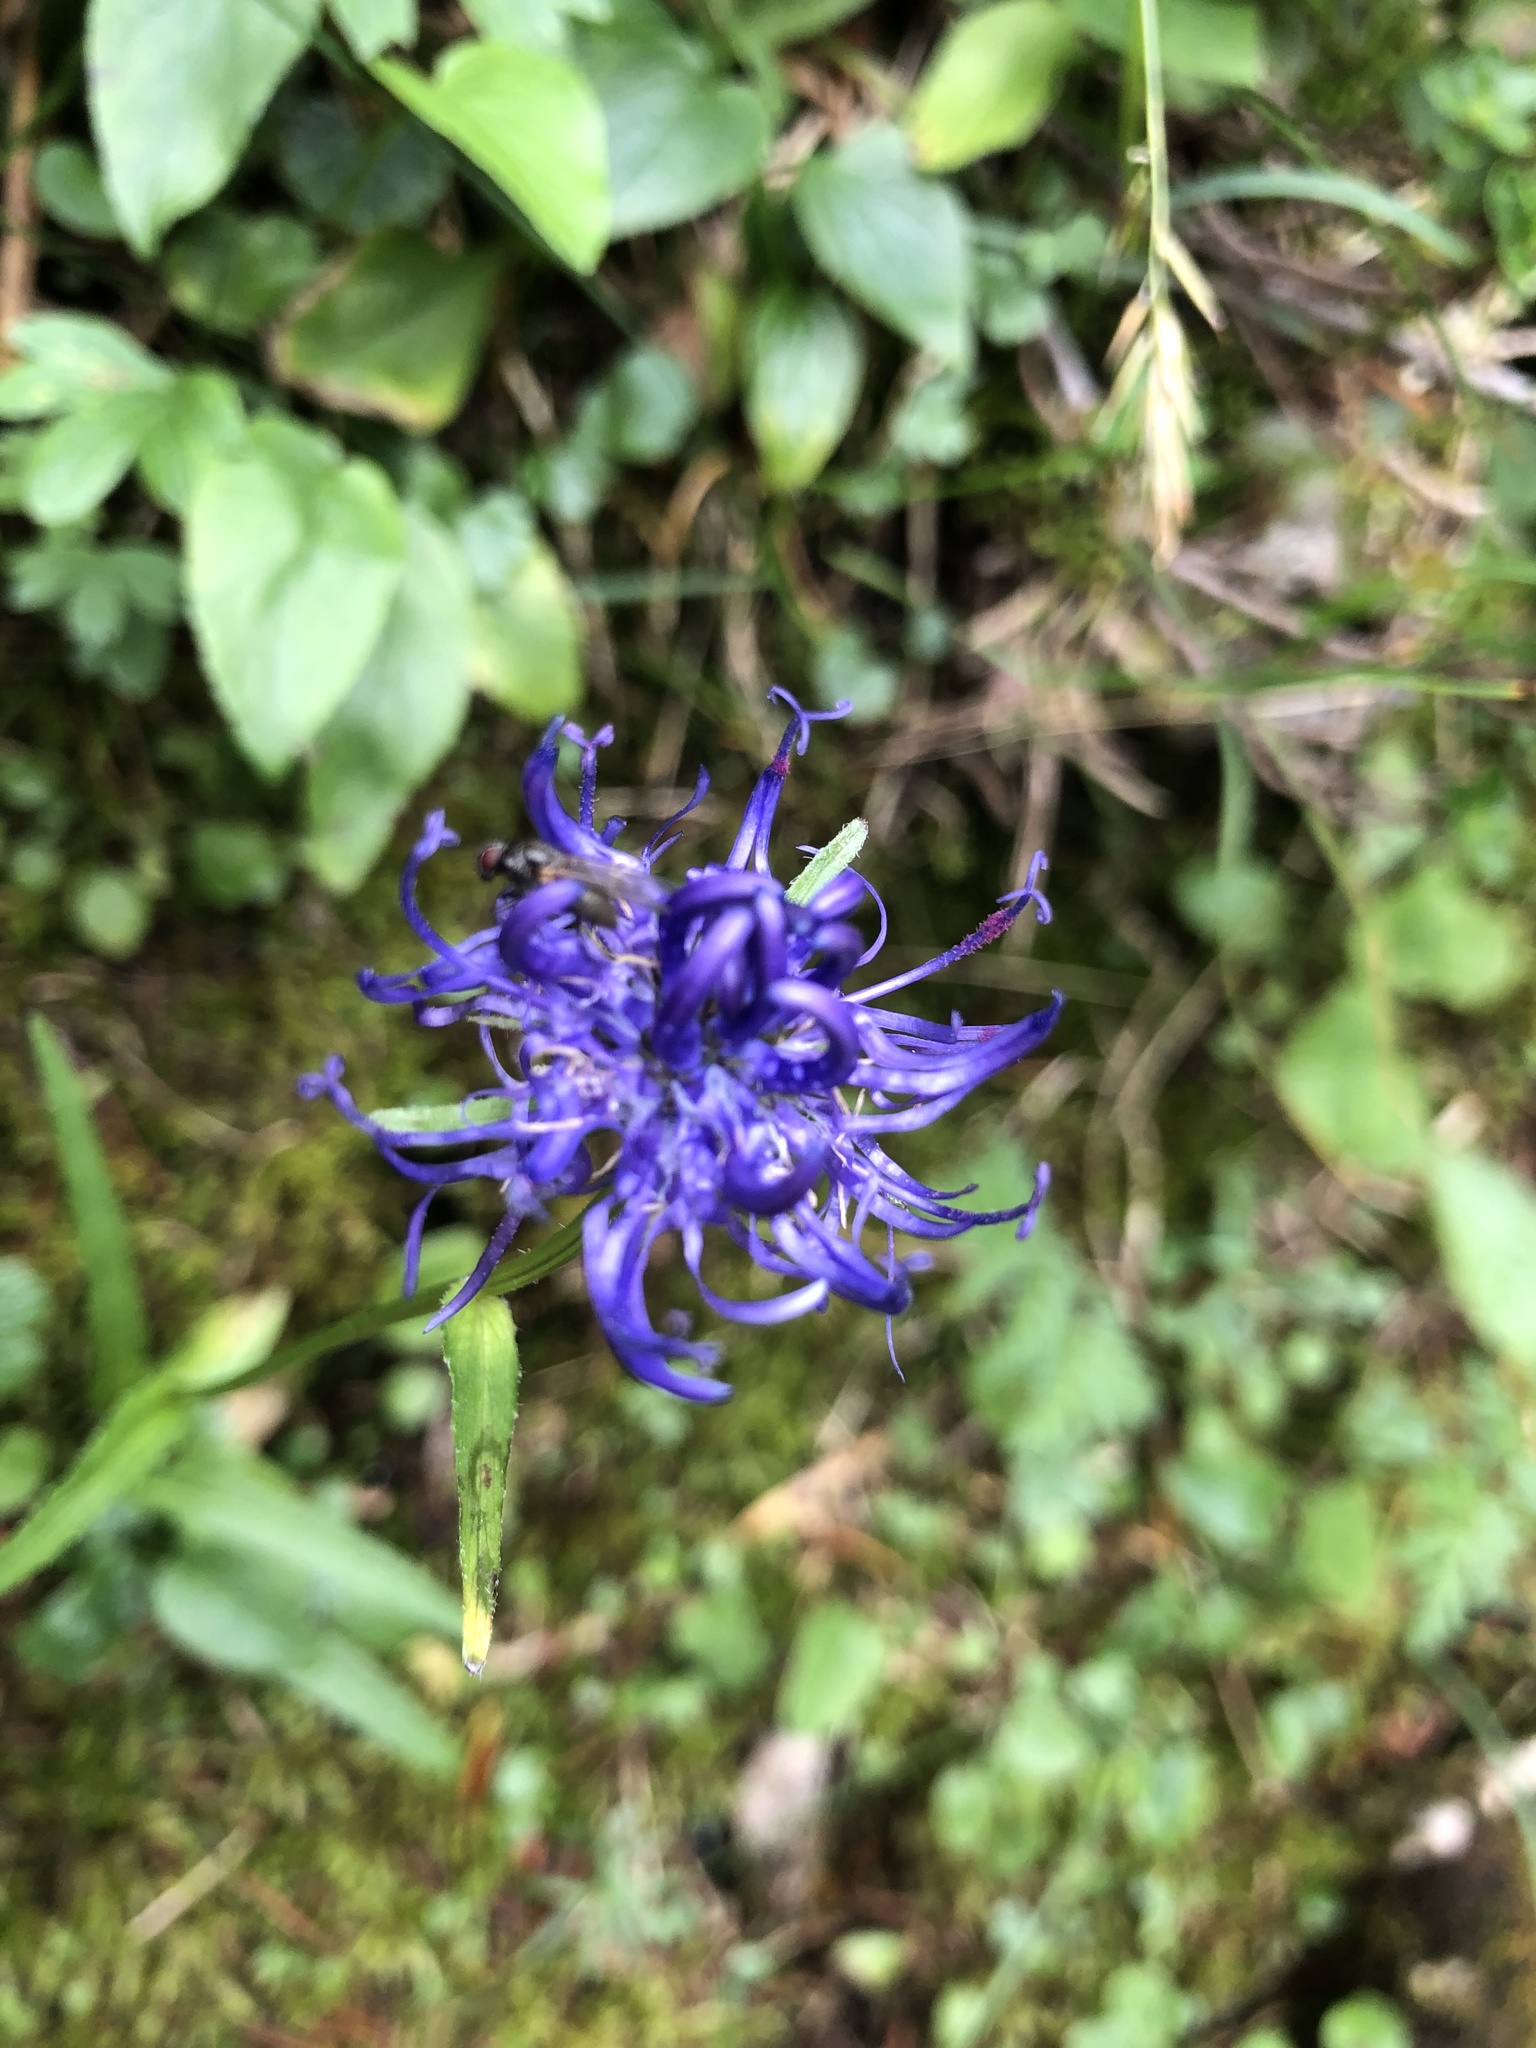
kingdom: Plantae
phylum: Tracheophyta
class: Magnoliopsida
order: Asterales
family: Campanulaceae
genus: Phyteuma
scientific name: Phyteuma orbiculare
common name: Round-headed rampion
